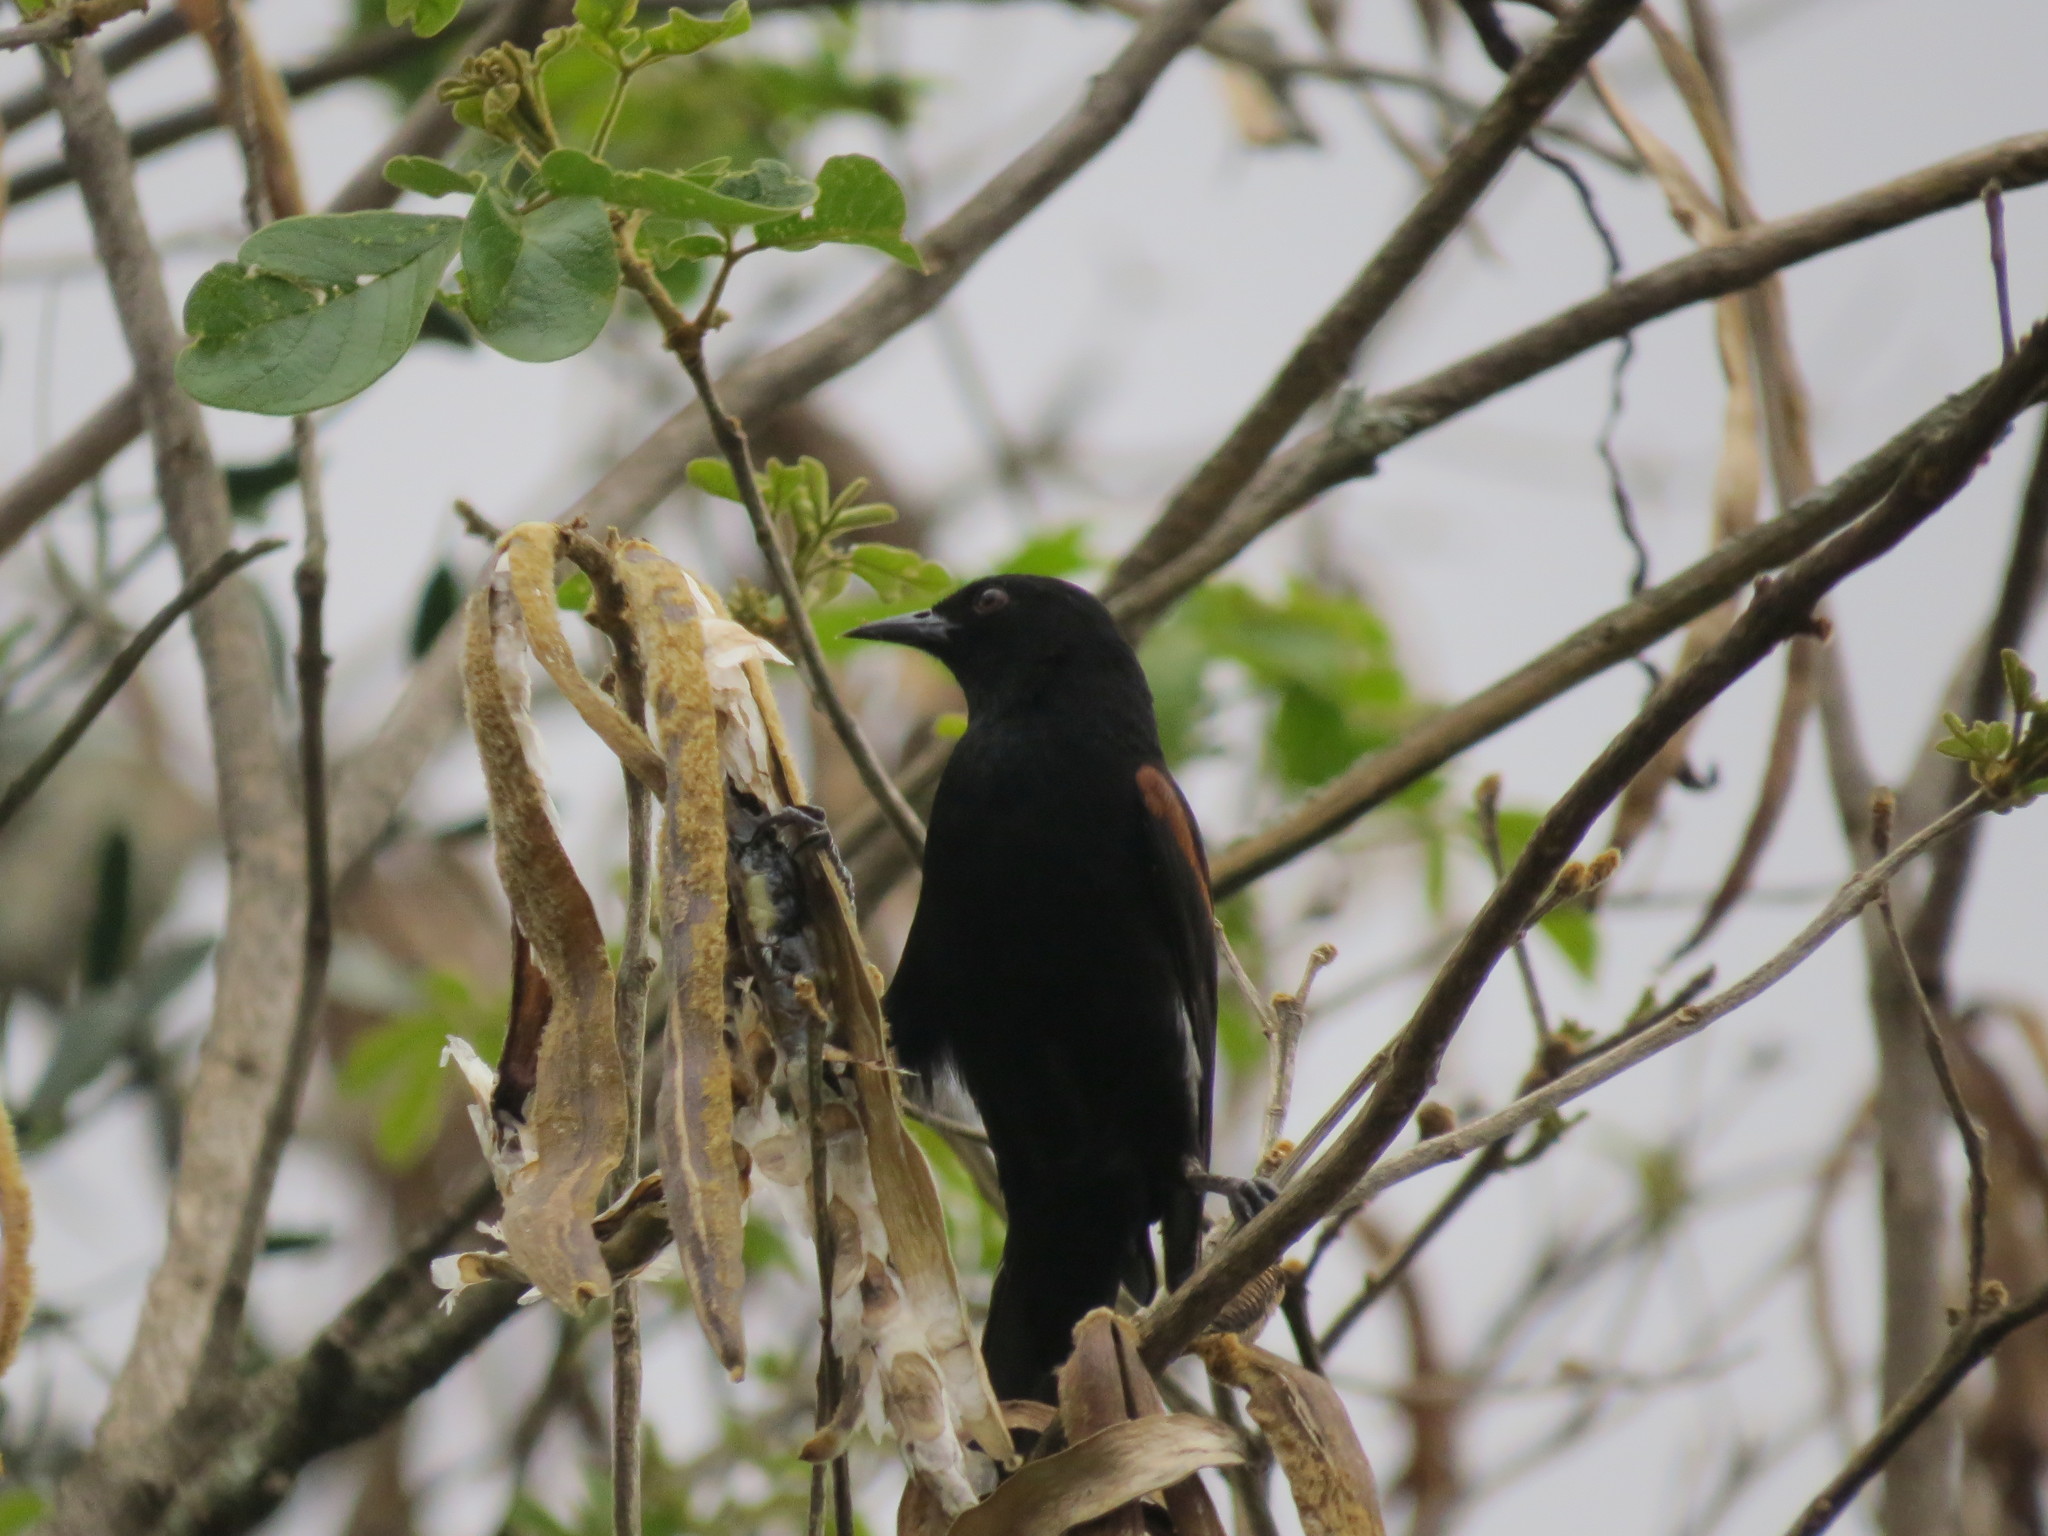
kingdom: Animalia
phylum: Chordata
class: Aves
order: Passeriformes
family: Icteridae
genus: Icterus
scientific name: Icterus cayanensis
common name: Epaulet oriole
